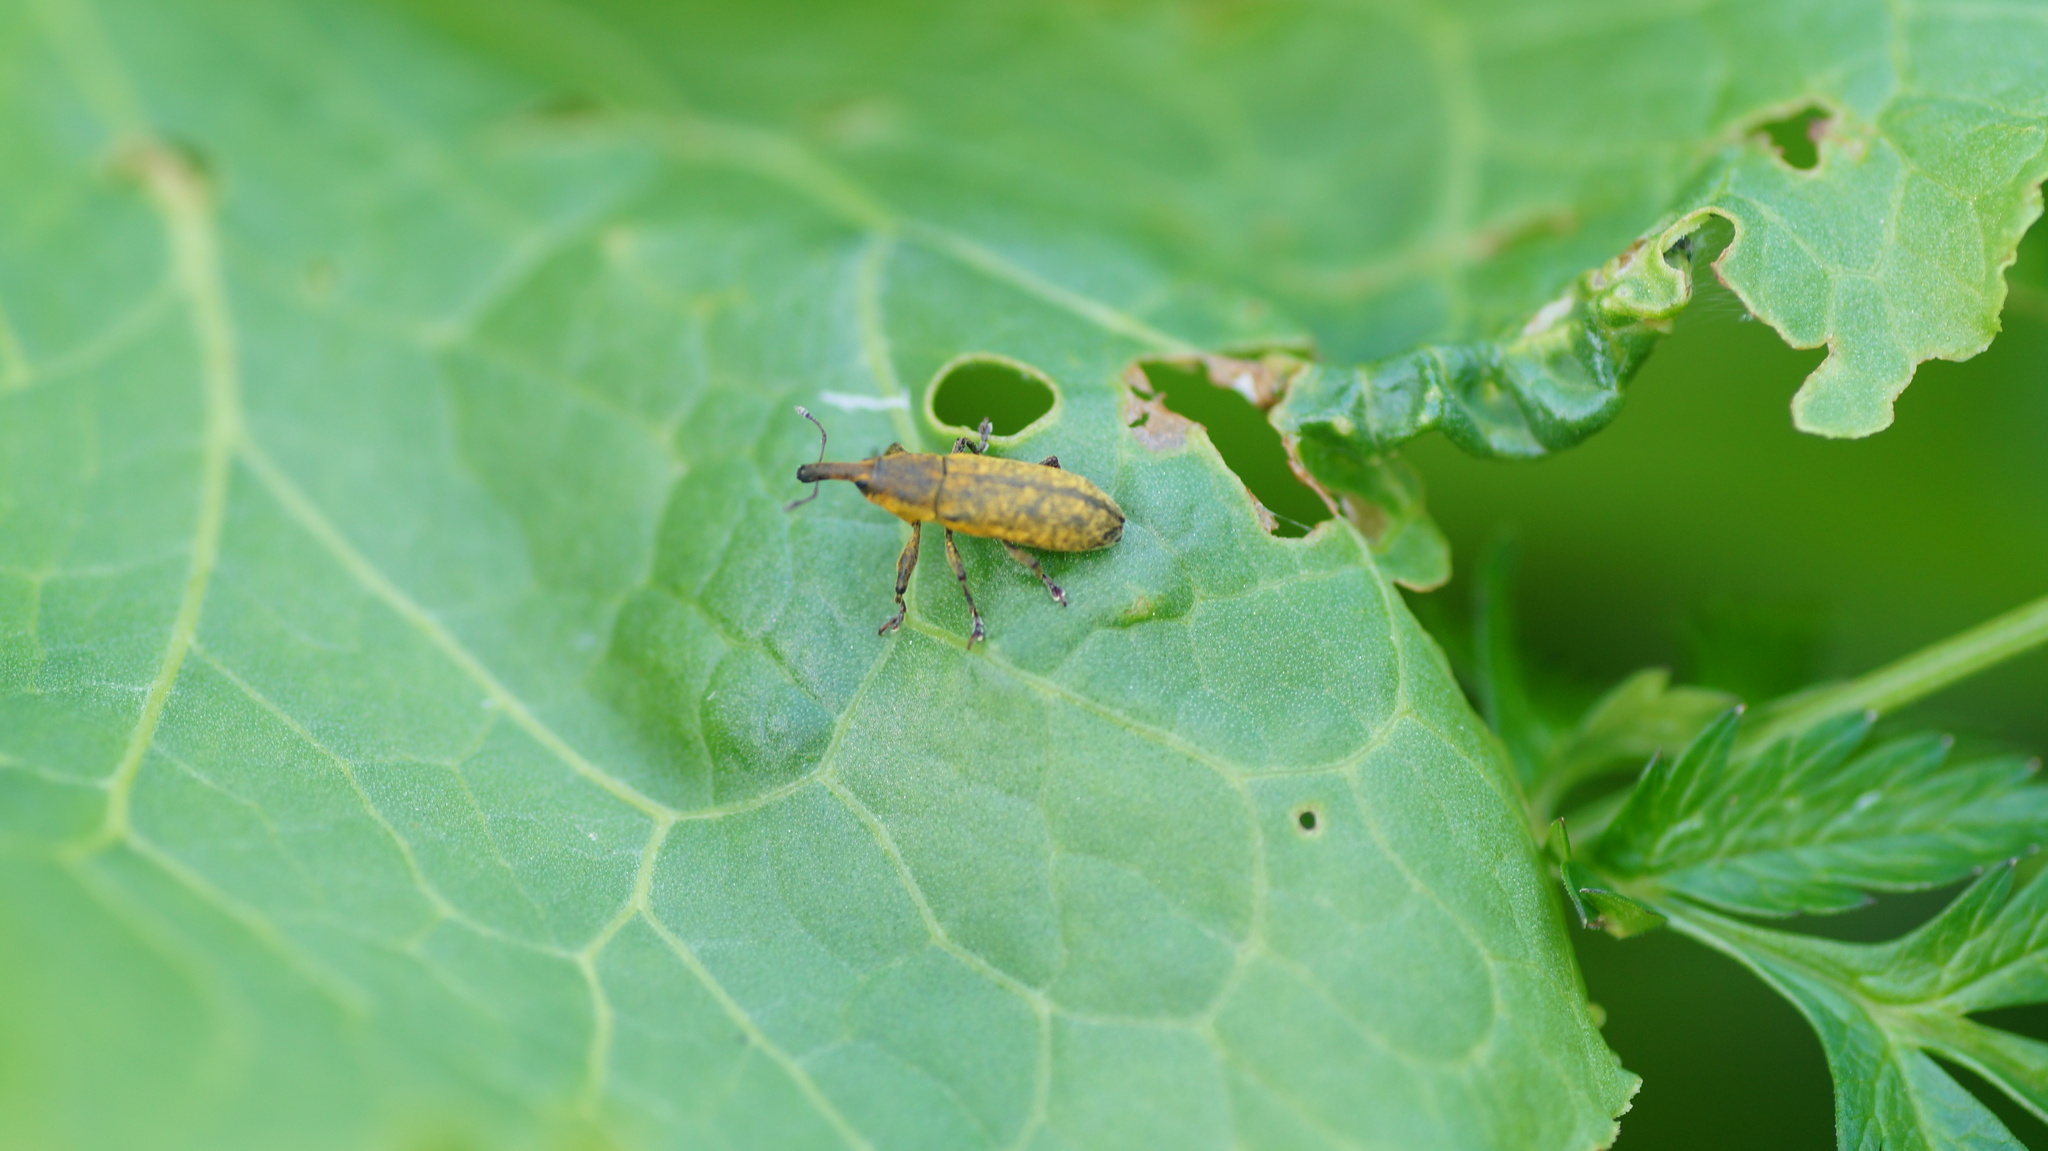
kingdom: Animalia
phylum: Arthropoda
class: Insecta
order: Coleoptera
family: Curculionidae
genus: Lixus
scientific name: Lixus bardanae
